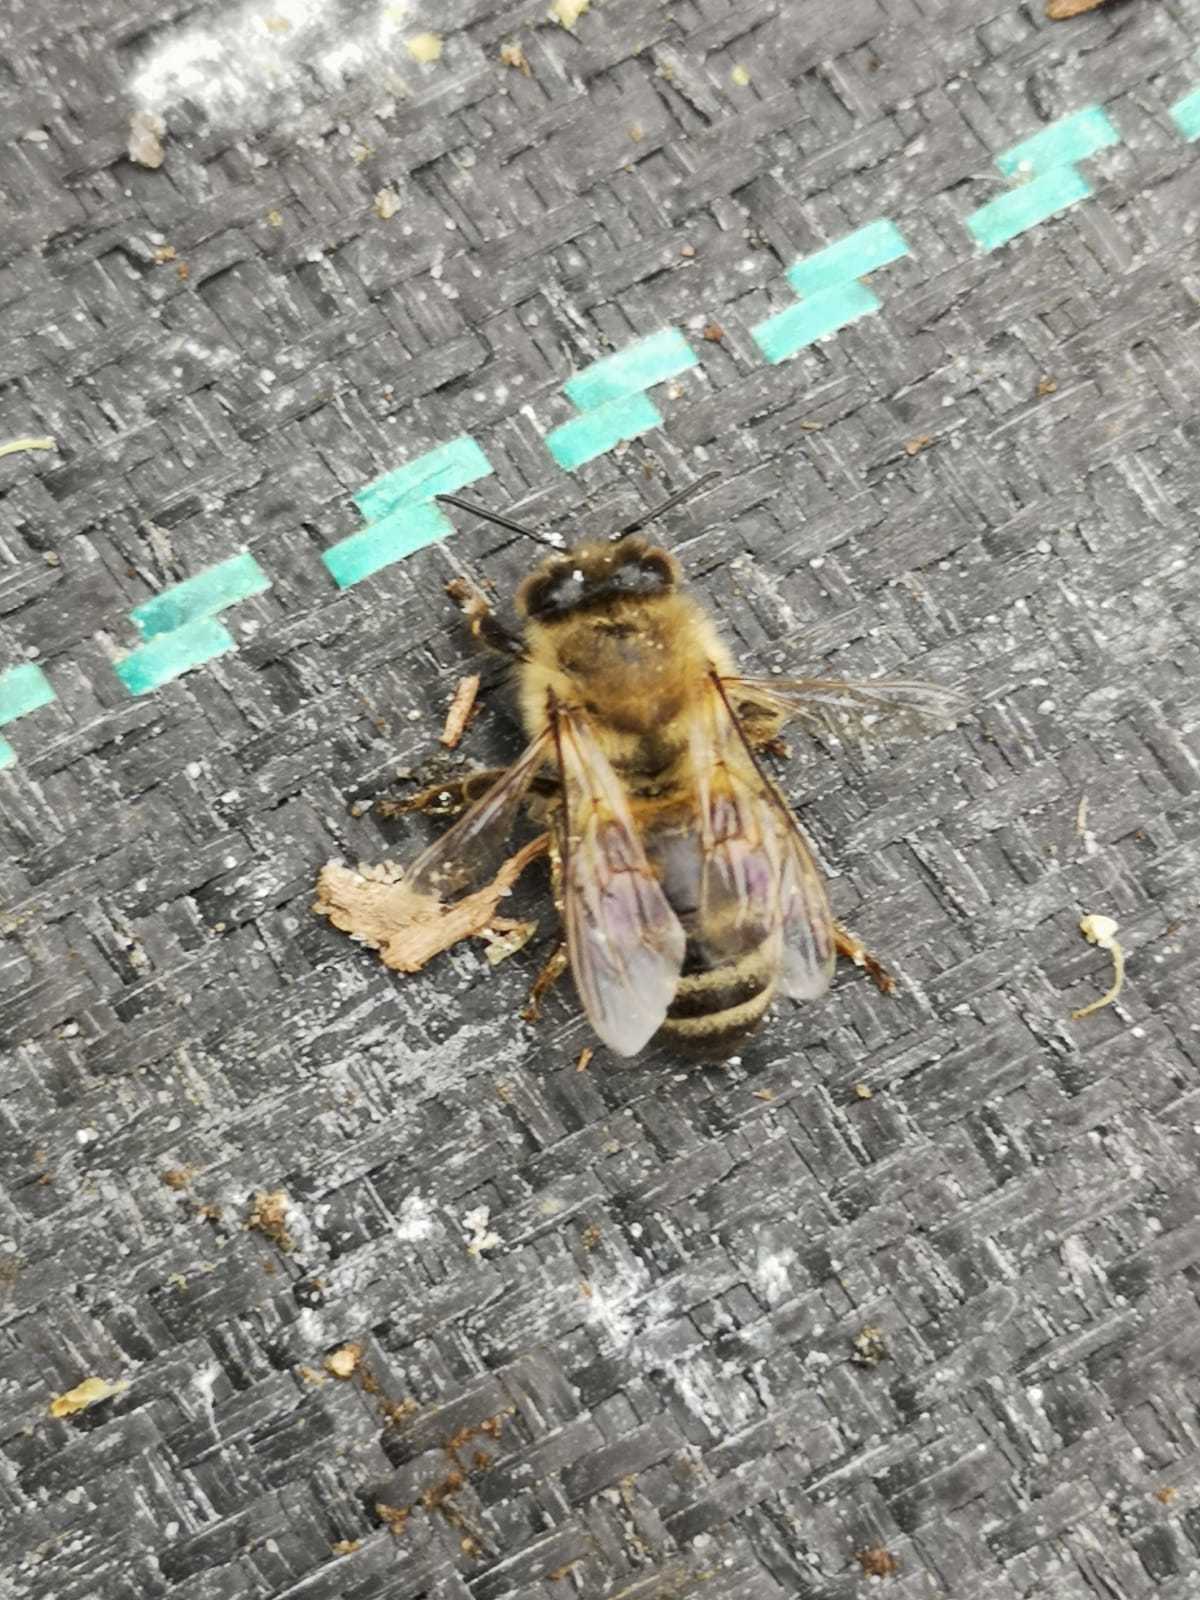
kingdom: Animalia
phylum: Arthropoda
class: Insecta
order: Hymenoptera
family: Apidae
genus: Apis
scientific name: Apis mellifera
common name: Honey bee
